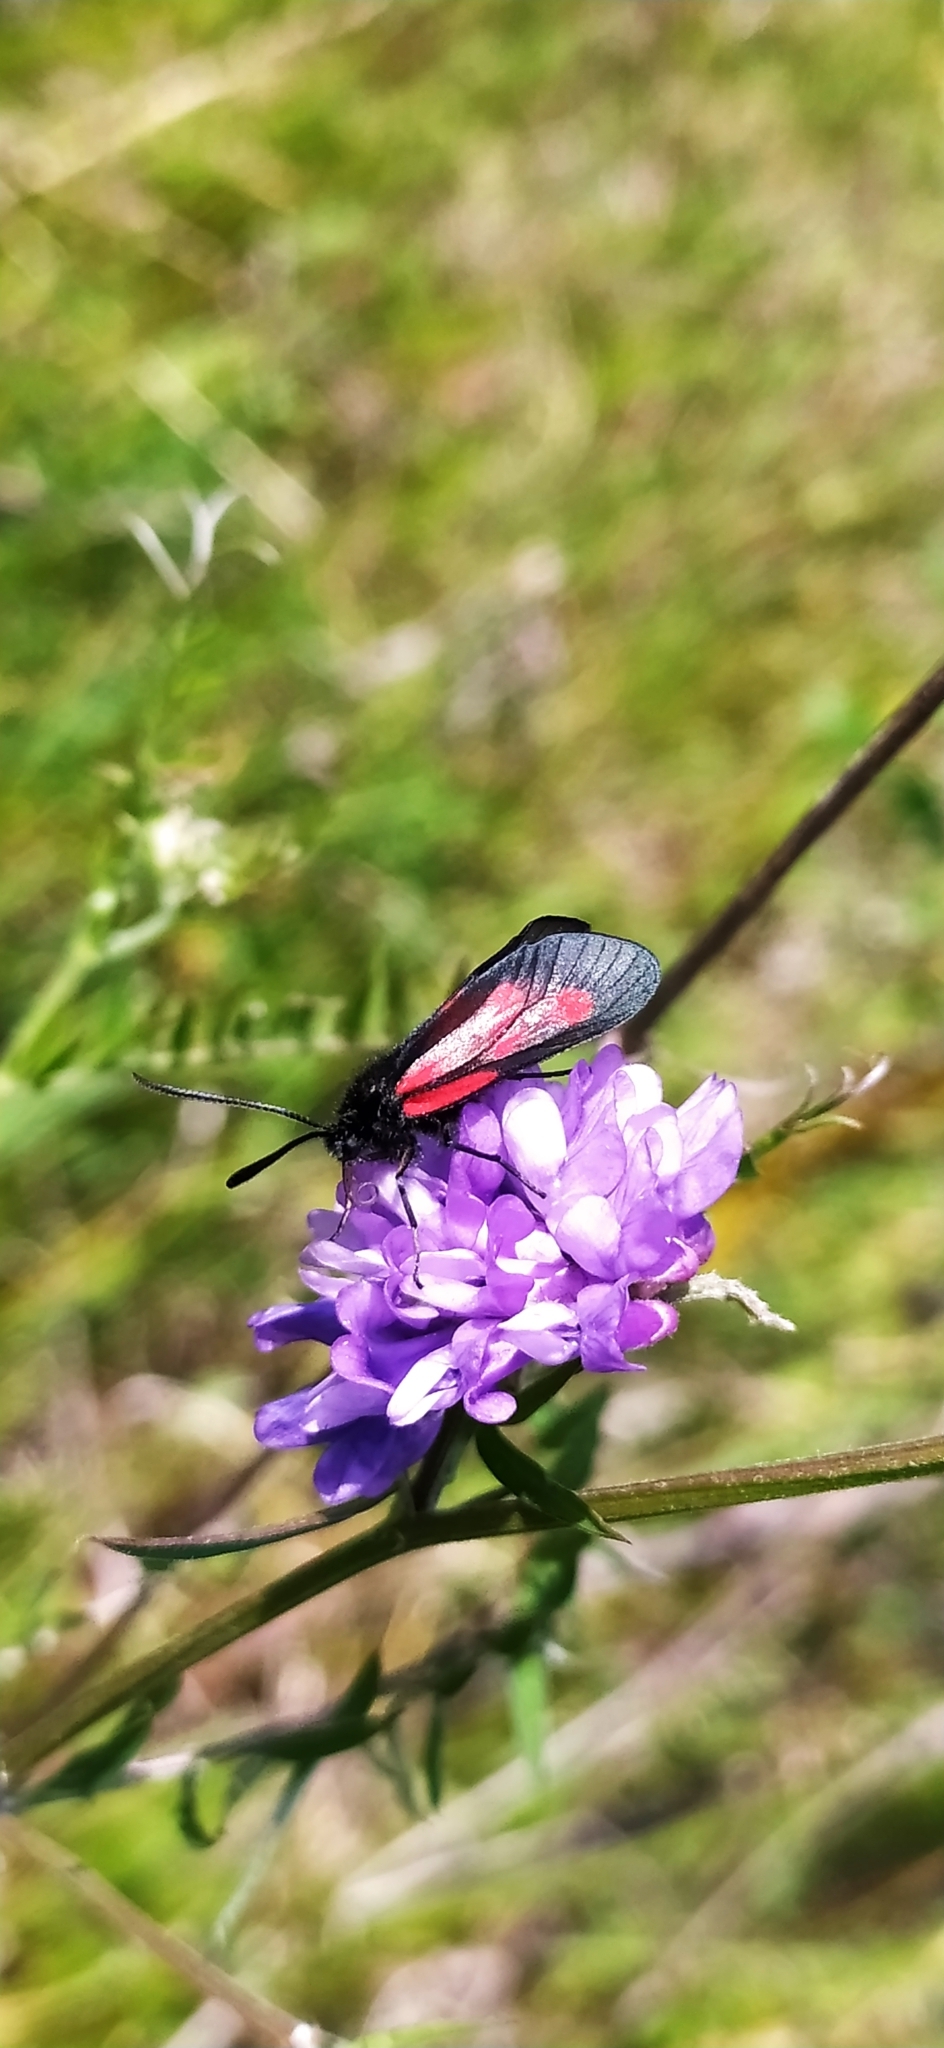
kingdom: Animalia
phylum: Arthropoda
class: Insecta
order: Lepidoptera
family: Zygaenidae
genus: Zygaena
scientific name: Zygaena osterodensis
